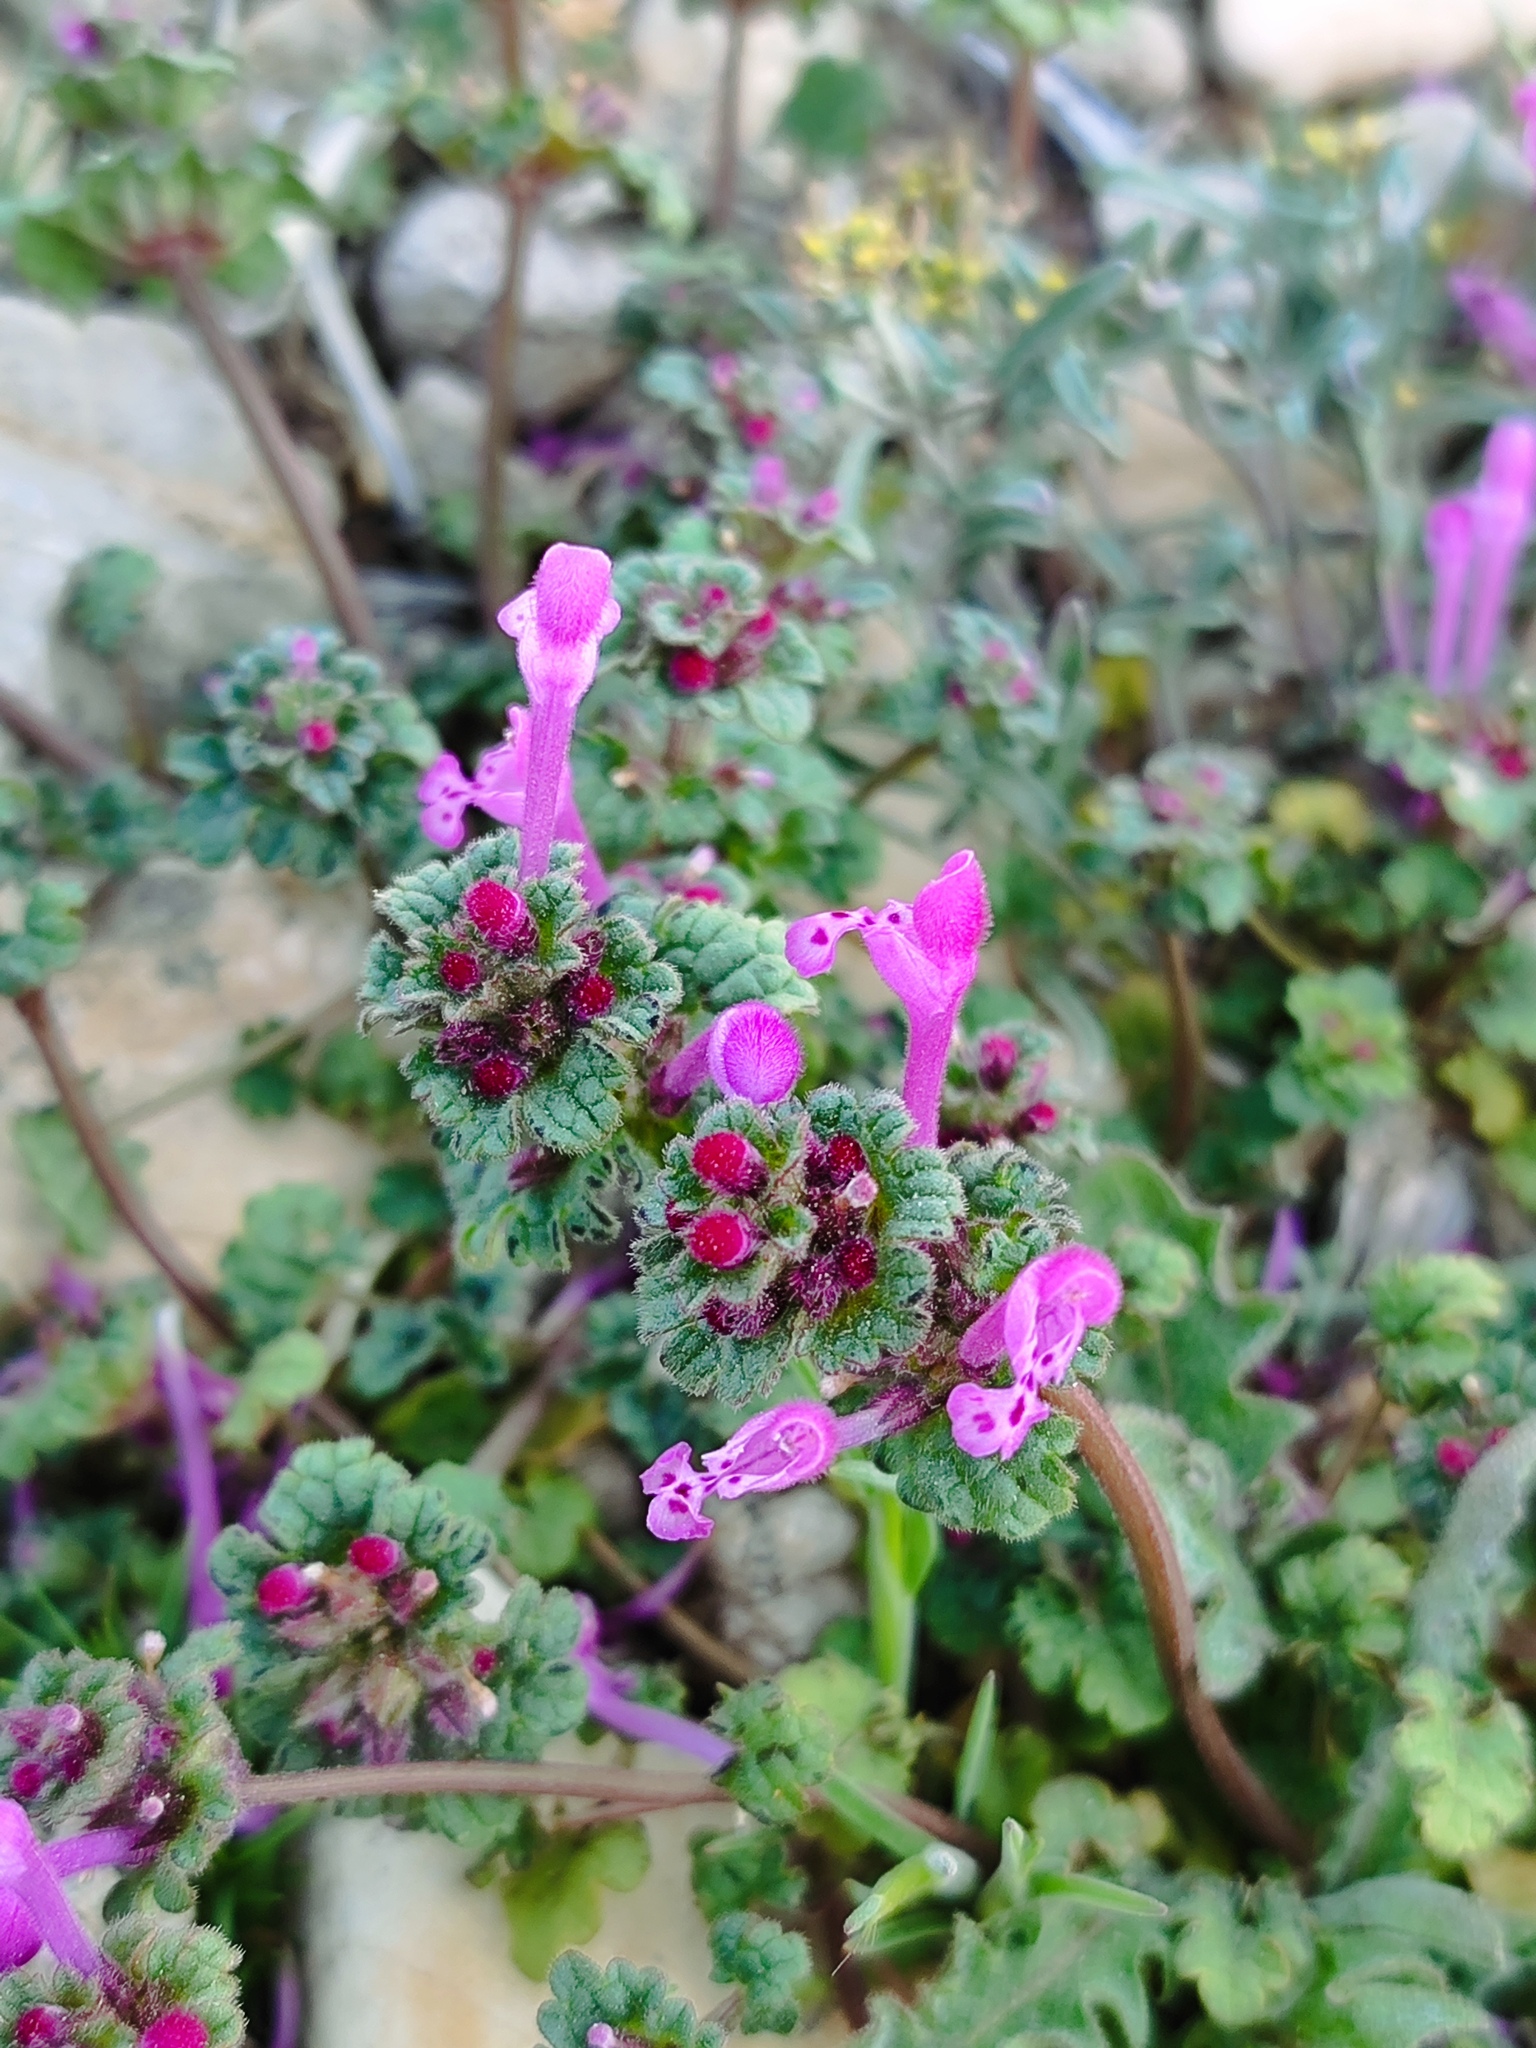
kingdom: Plantae
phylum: Tracheophyta
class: Magnoliopsida
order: Lamiales
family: Lamiaceae
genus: Lamium
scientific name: Lamium amplexicaule
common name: Henbit dead-nettle
